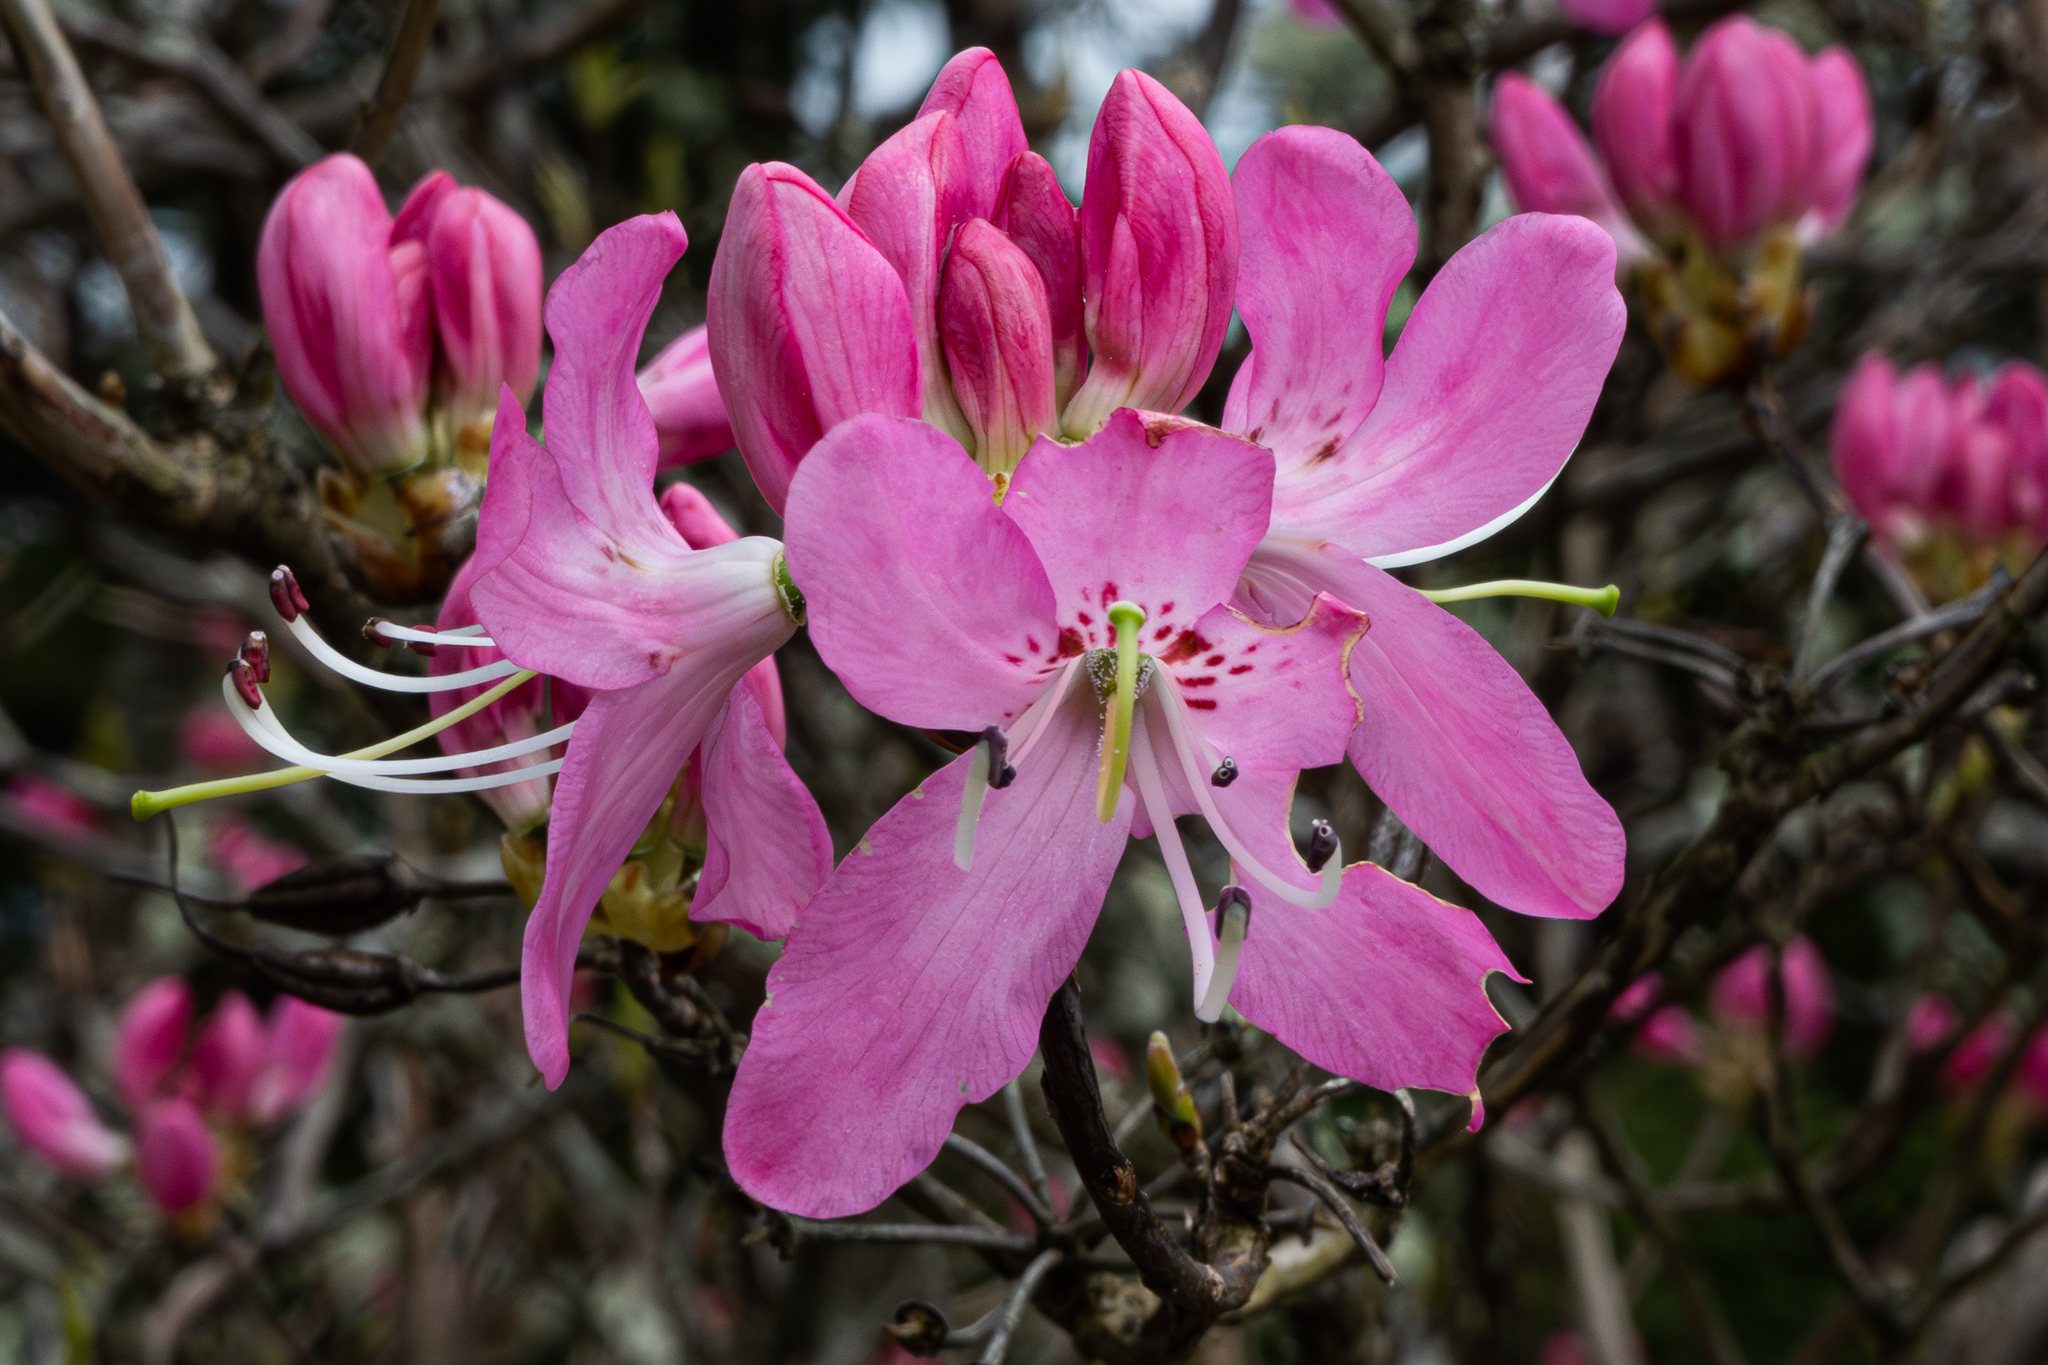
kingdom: Plantae
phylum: Tracheophyta
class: Magnoliopsida
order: Ericales
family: Ericaceae
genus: Rhododendron
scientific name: Rhododendron vaseyi
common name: Pink-shell azalea
